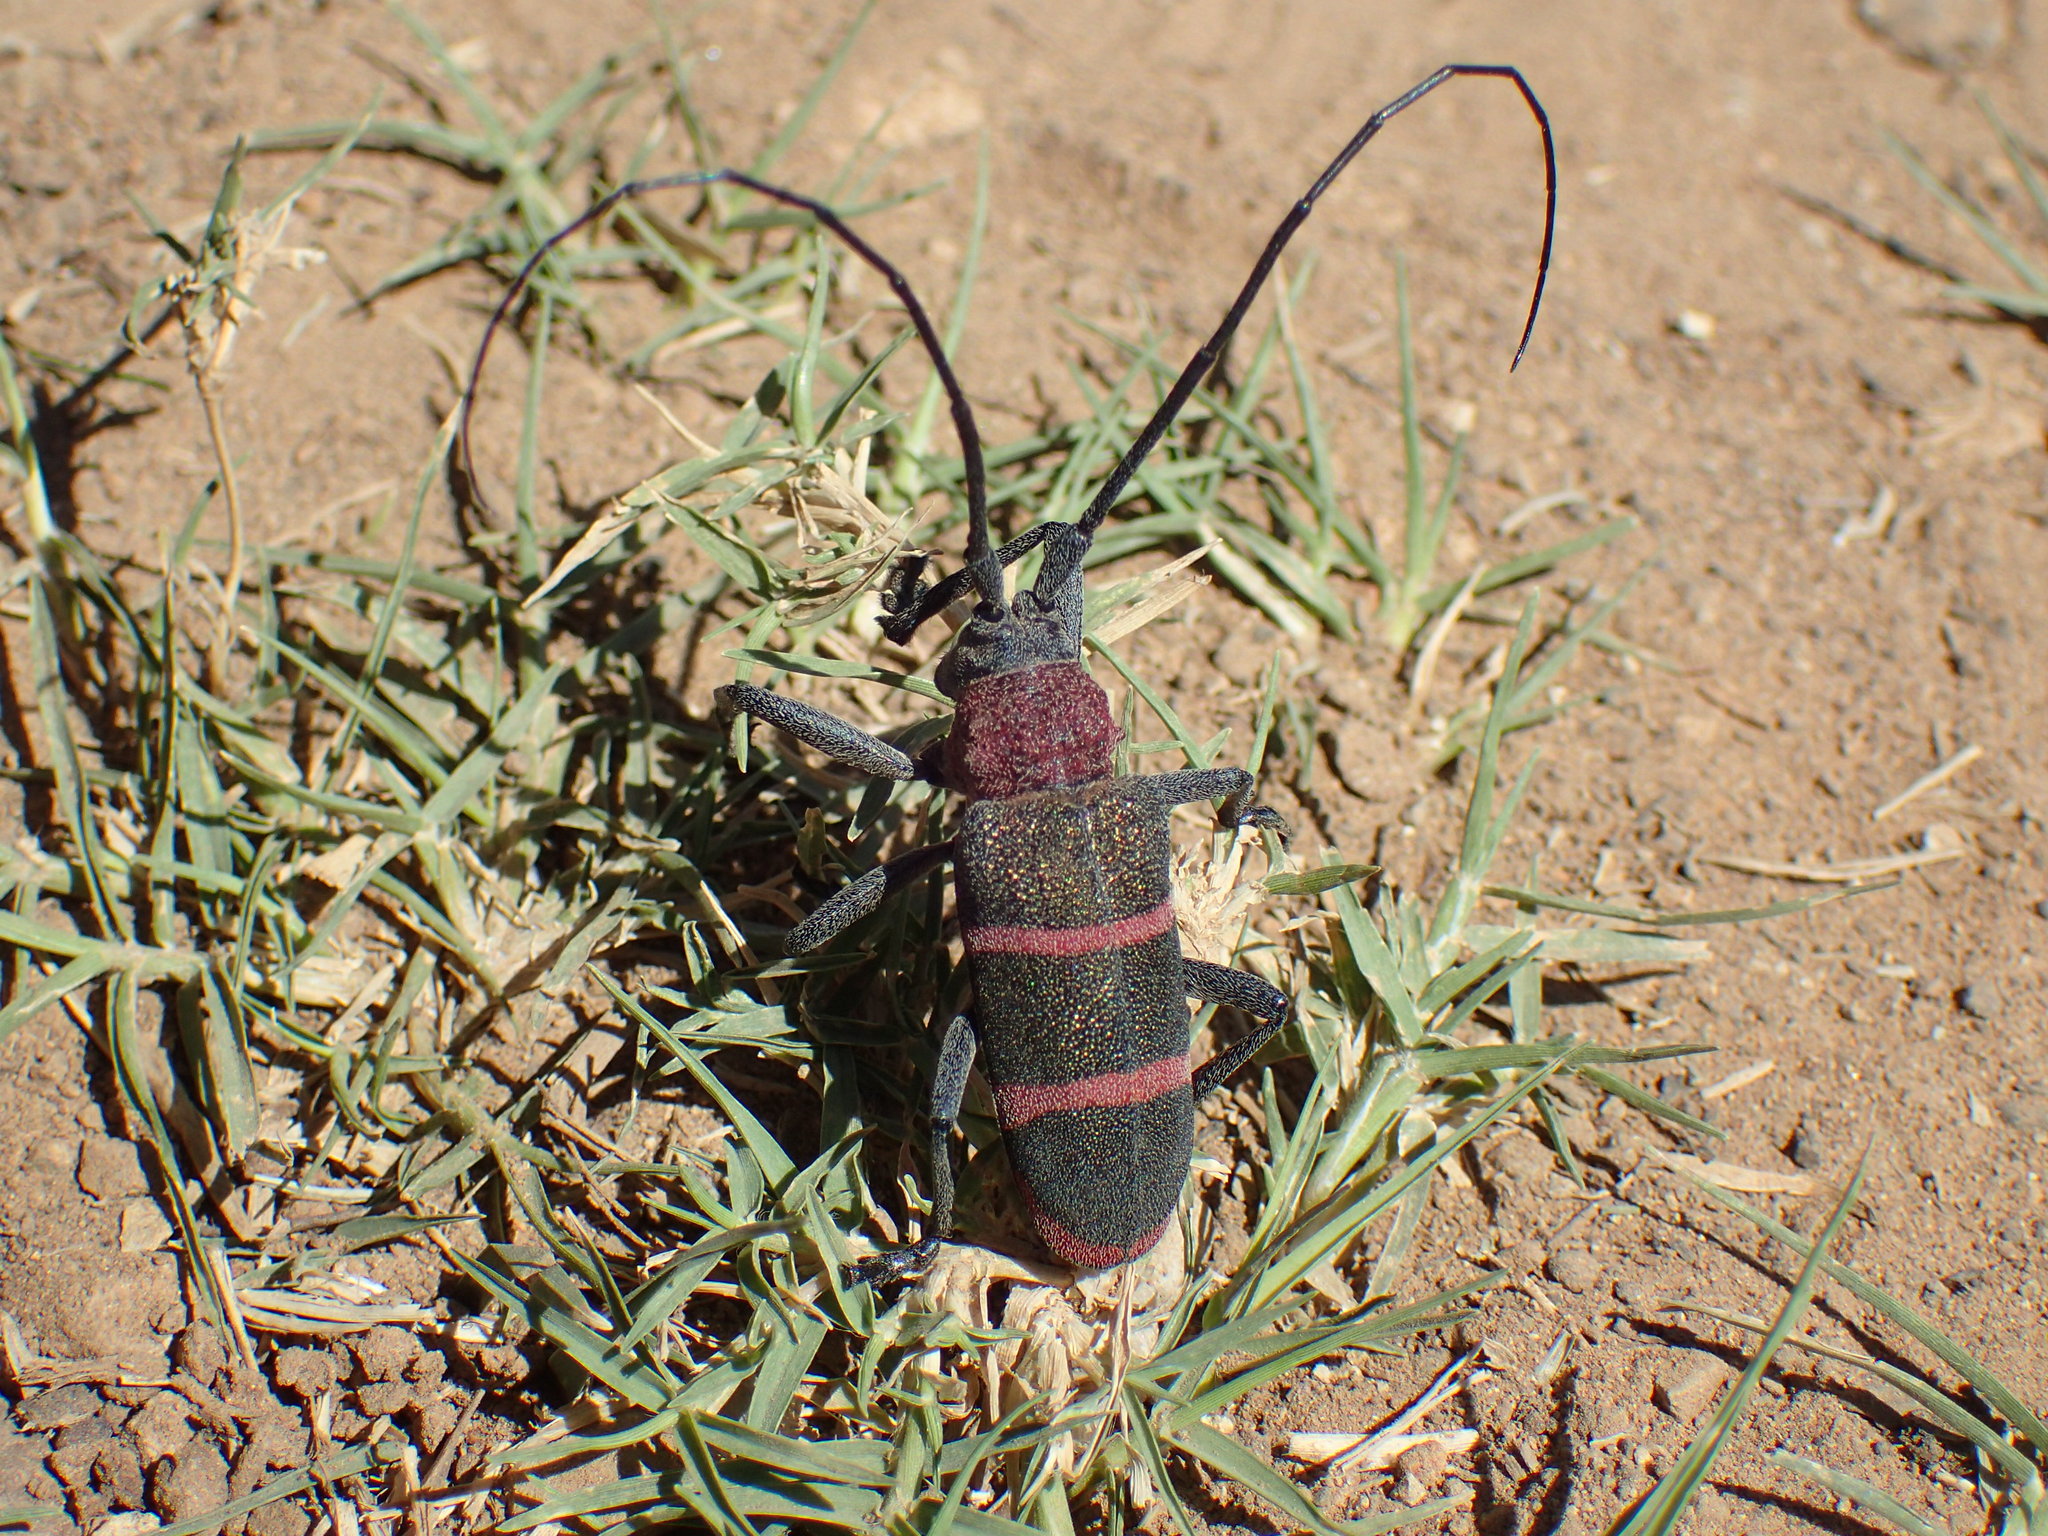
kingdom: Animalia
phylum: Arthropoda
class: Insecta
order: Coleoptera
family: Cerambycidae
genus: Ceroplesis
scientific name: Ceroplesis sumptuosa
